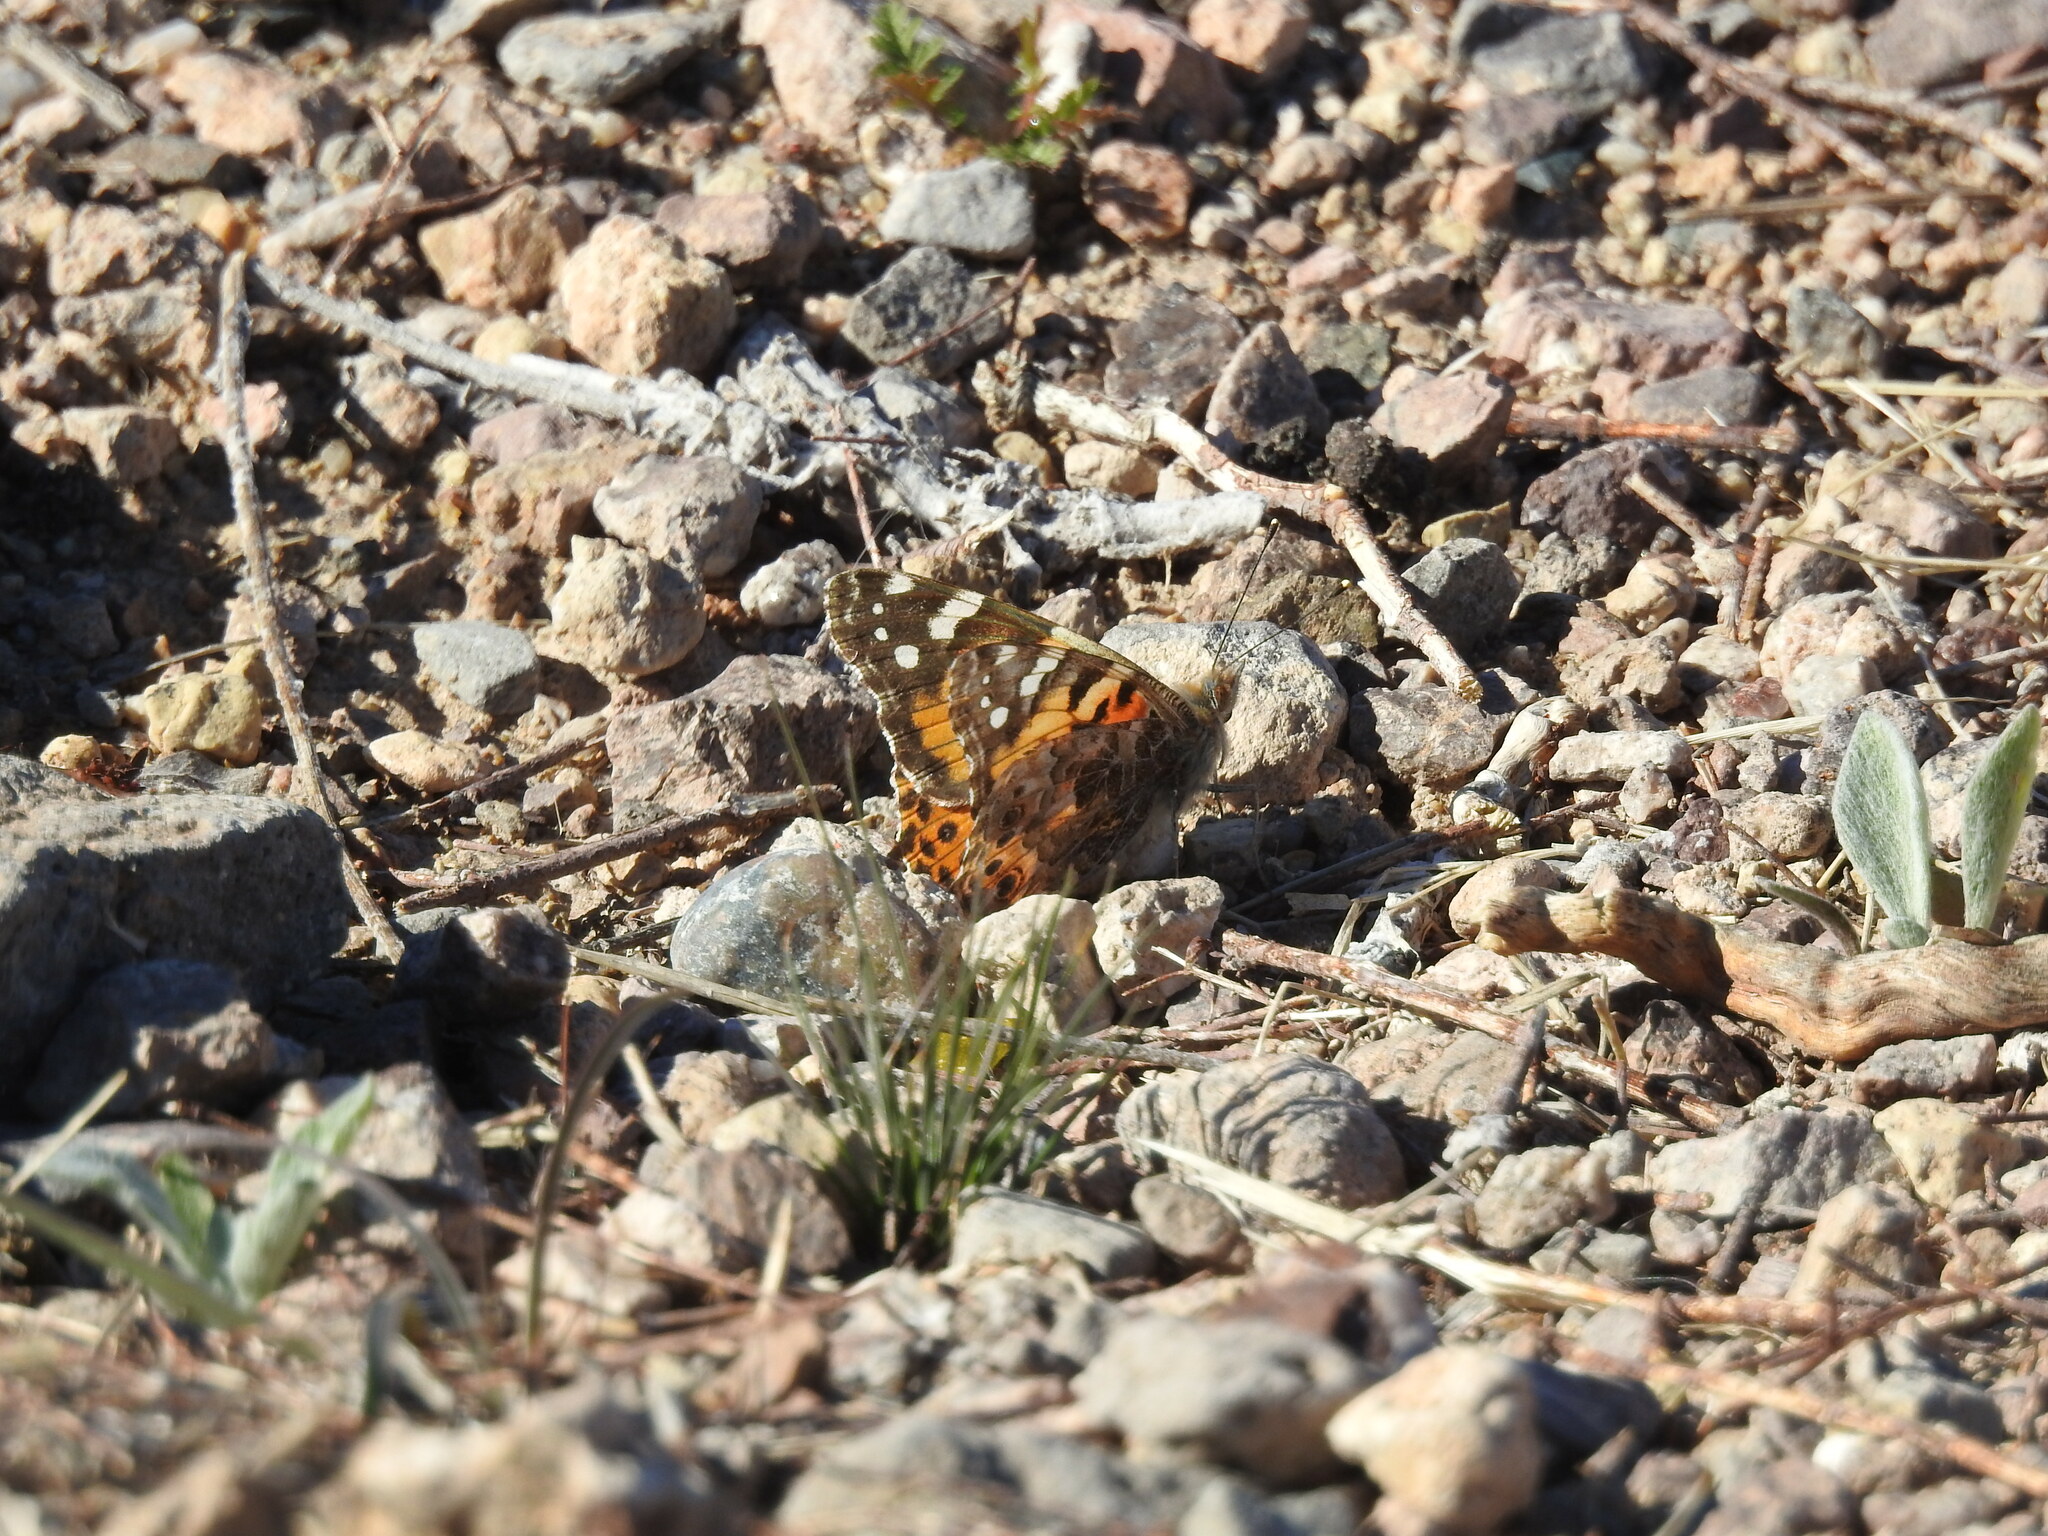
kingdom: Animalia
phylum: Arthropoda
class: Insecta
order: Lepidoptera
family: Nymphalidae
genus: Vanessa
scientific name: Vanessa cardui
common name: Painted lady
